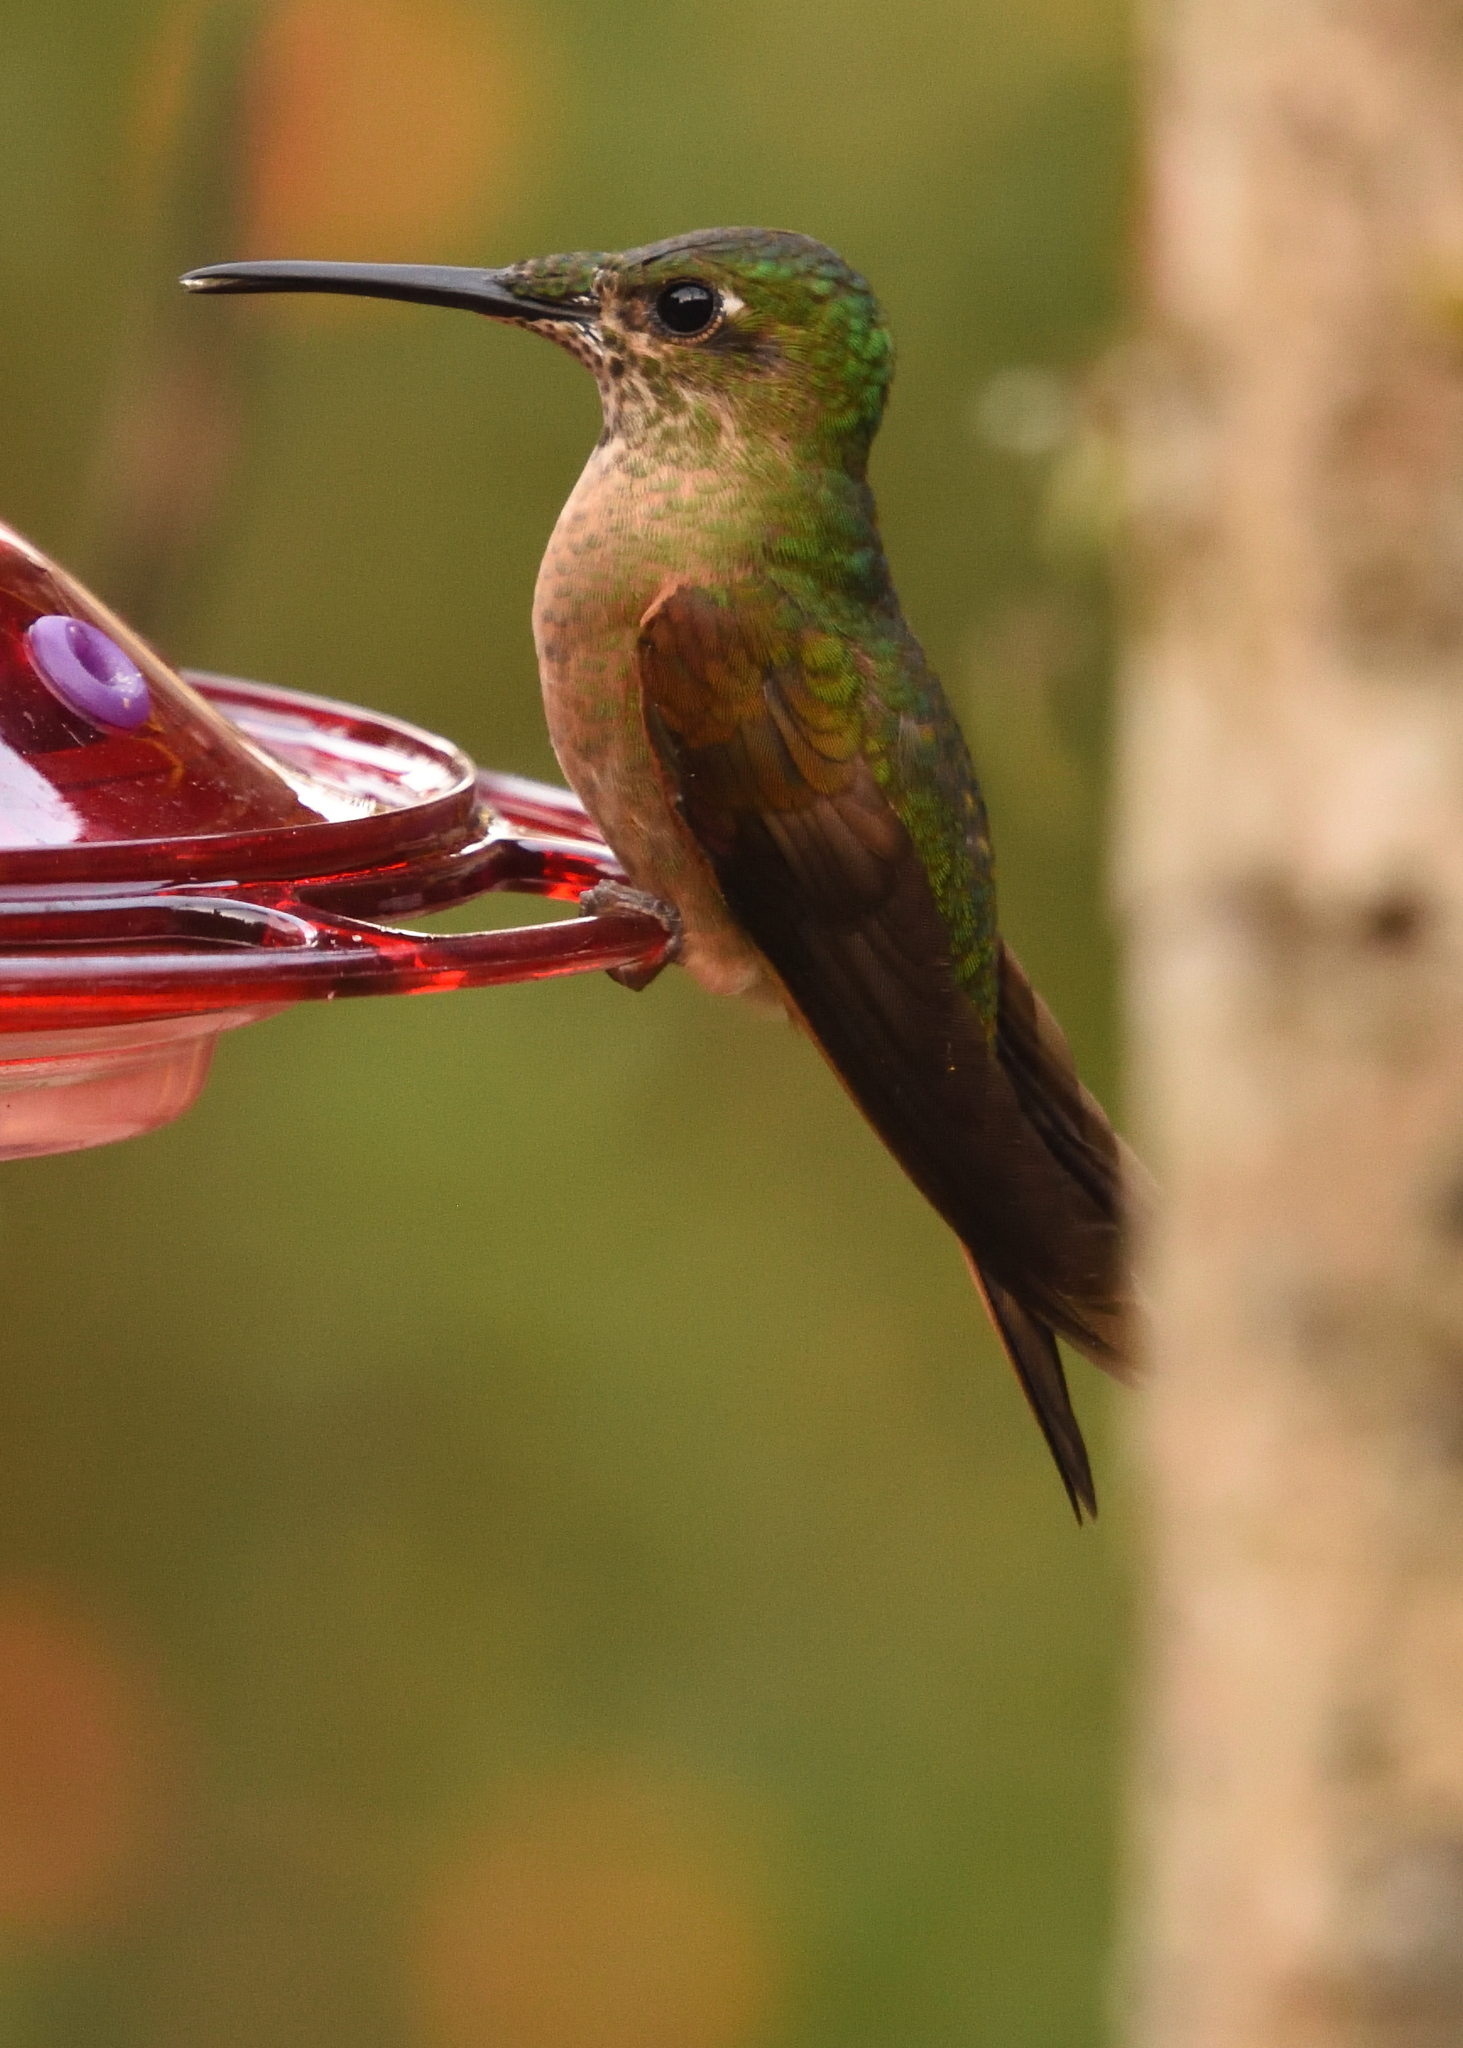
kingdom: Animalia
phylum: Chordata
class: Aves
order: Apodiformes
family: Trochilidae
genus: Heliodoxa
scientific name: Heliodoxa rubinoides
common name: Fawn-breasted brilliant
